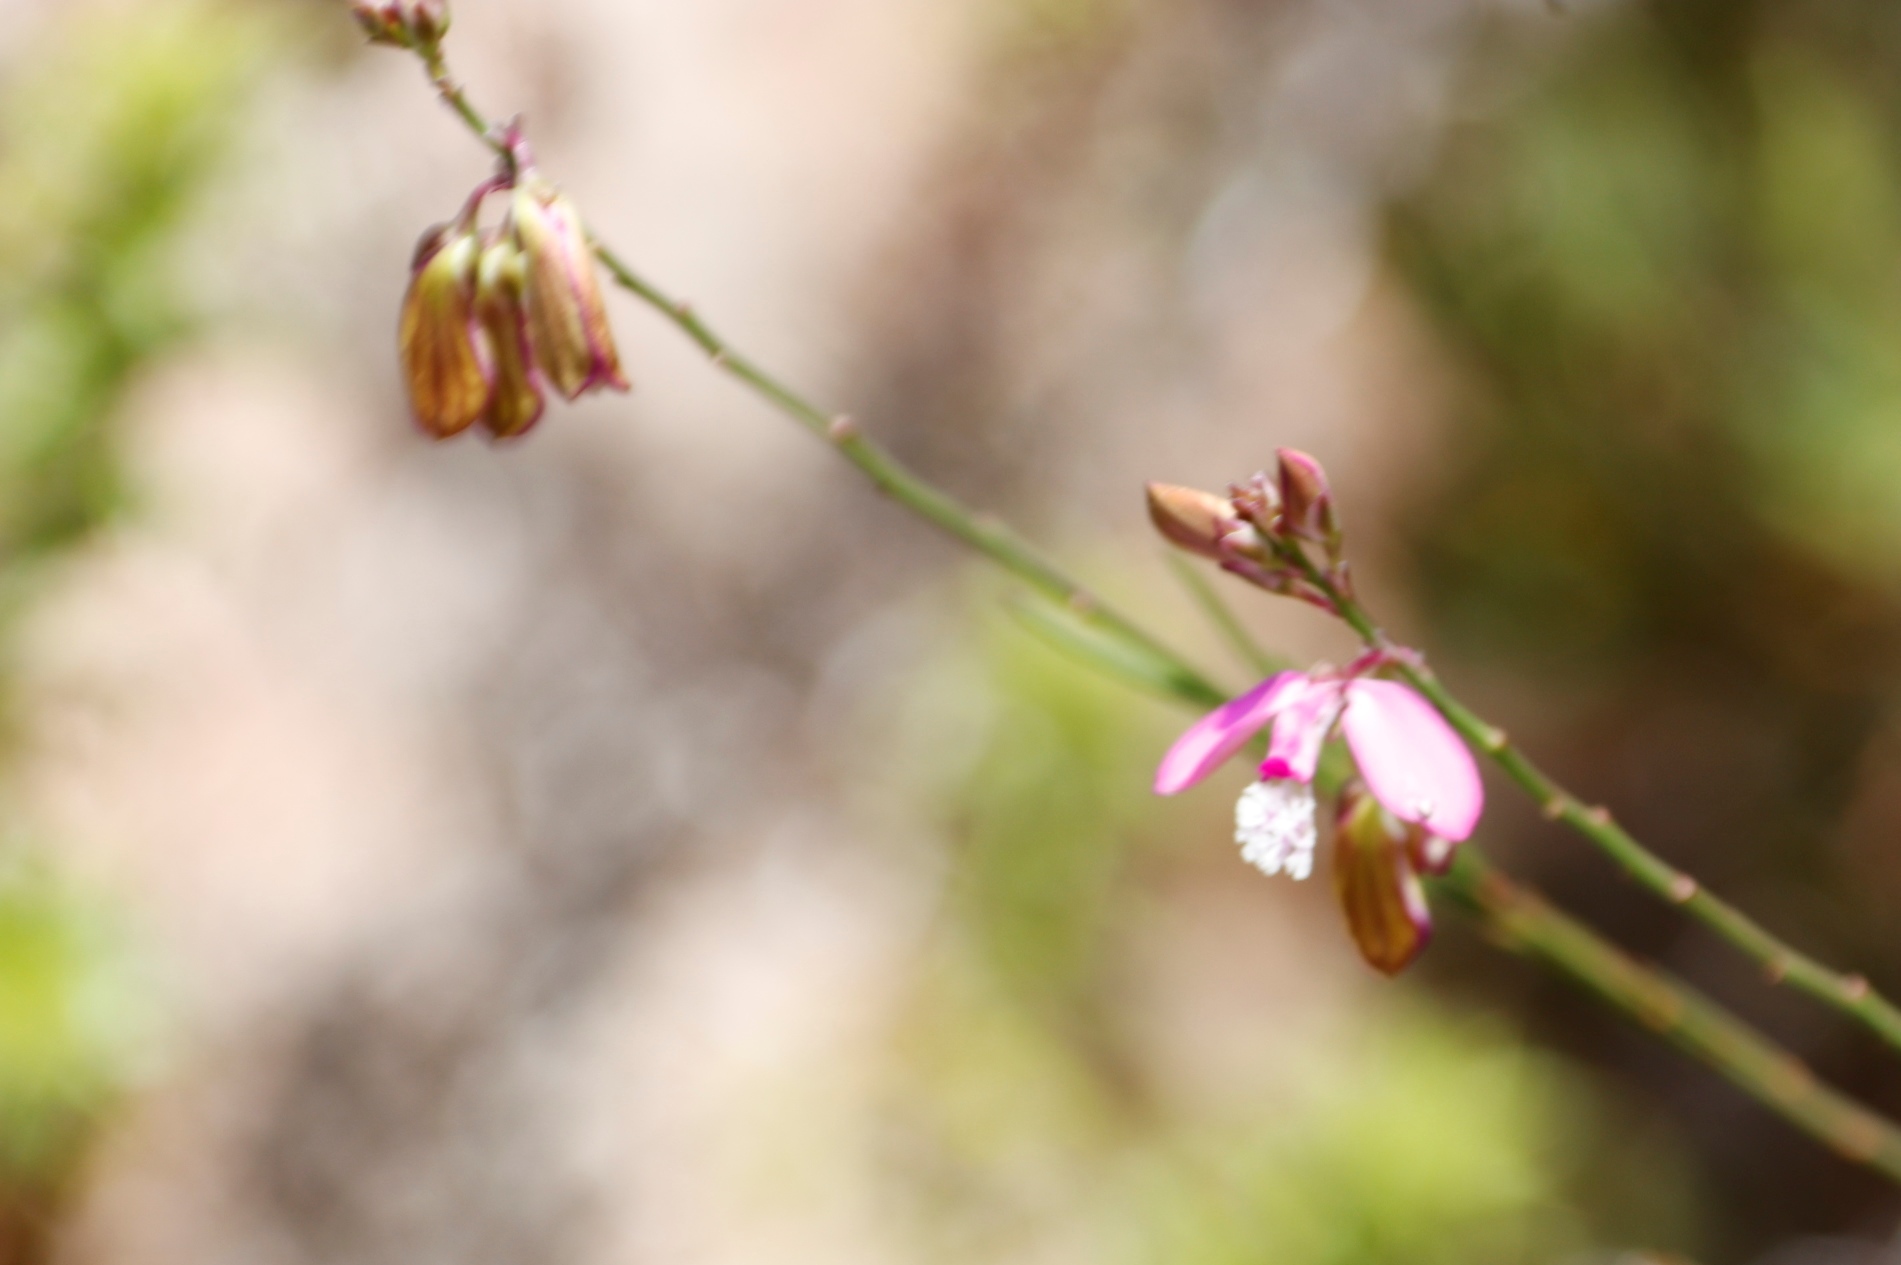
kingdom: Plantae
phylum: Tracheophyta
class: Magnoliopsida
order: Fabales
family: Polygalaceae
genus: Polygala
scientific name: Polygala garcini
